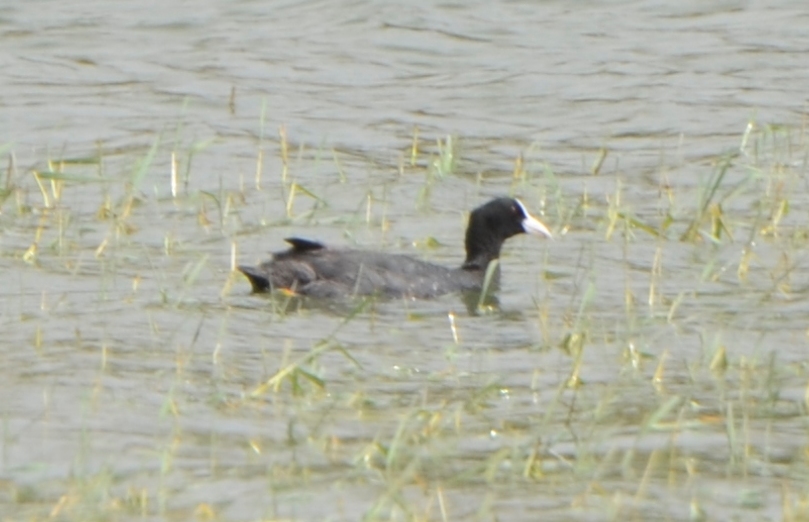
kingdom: Animalia
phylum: Chordata
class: Aves
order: Gruiformes
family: Rallidae
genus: Fulica
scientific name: Fulica atra
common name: Eurasian coot
